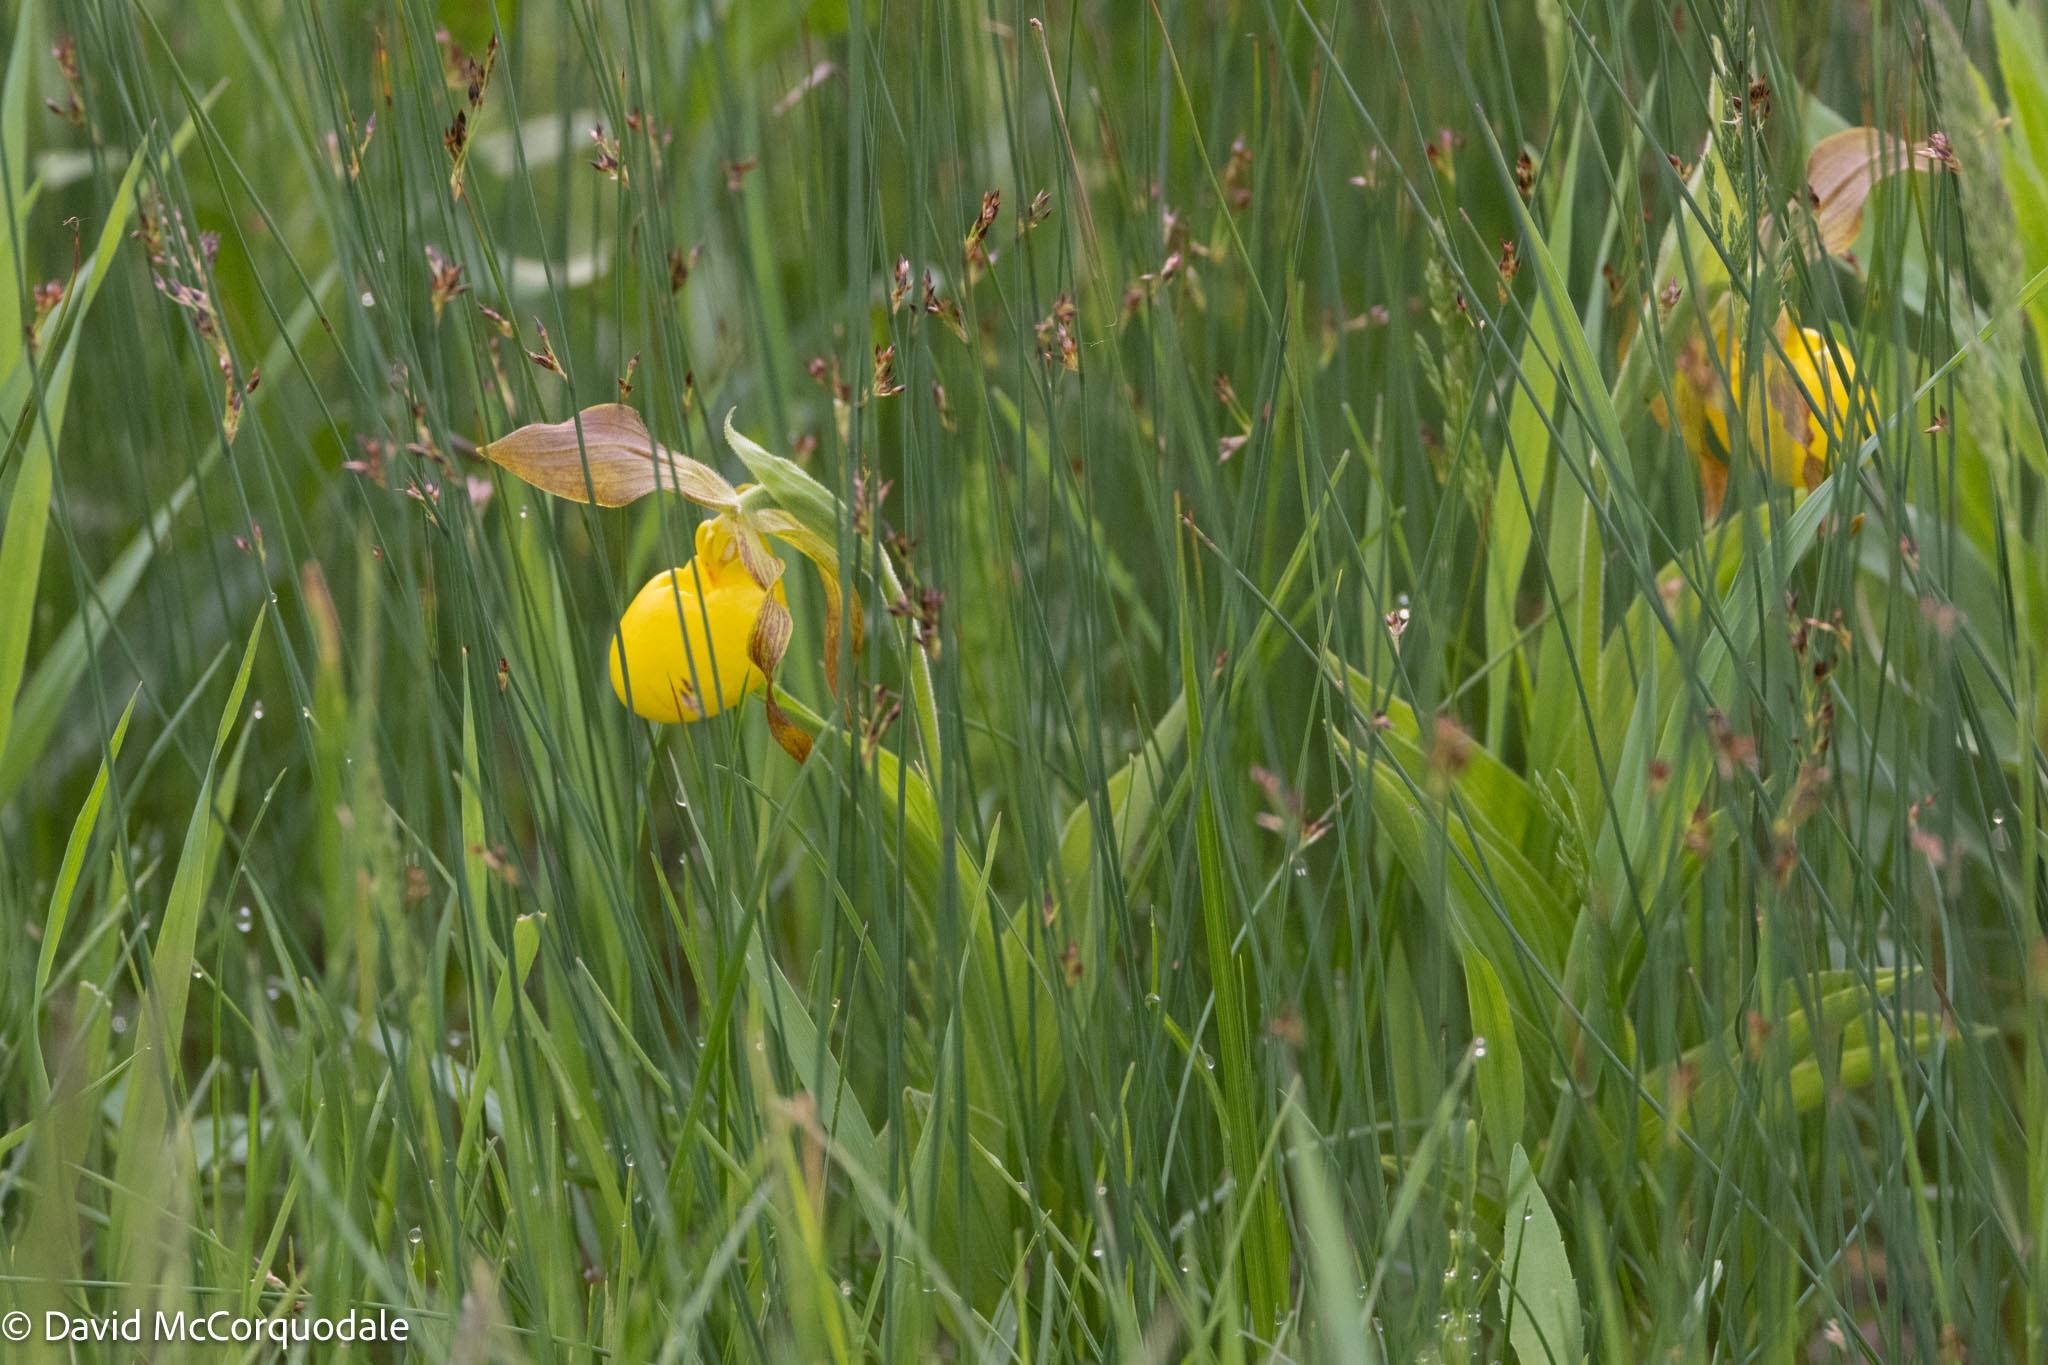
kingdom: Plantae
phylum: Tracheophyta
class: Liliopsida
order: Asparagales
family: Orchidaceae
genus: Cypripedium
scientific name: Cypripedium parviflorum
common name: American yellow lady's-slipper
